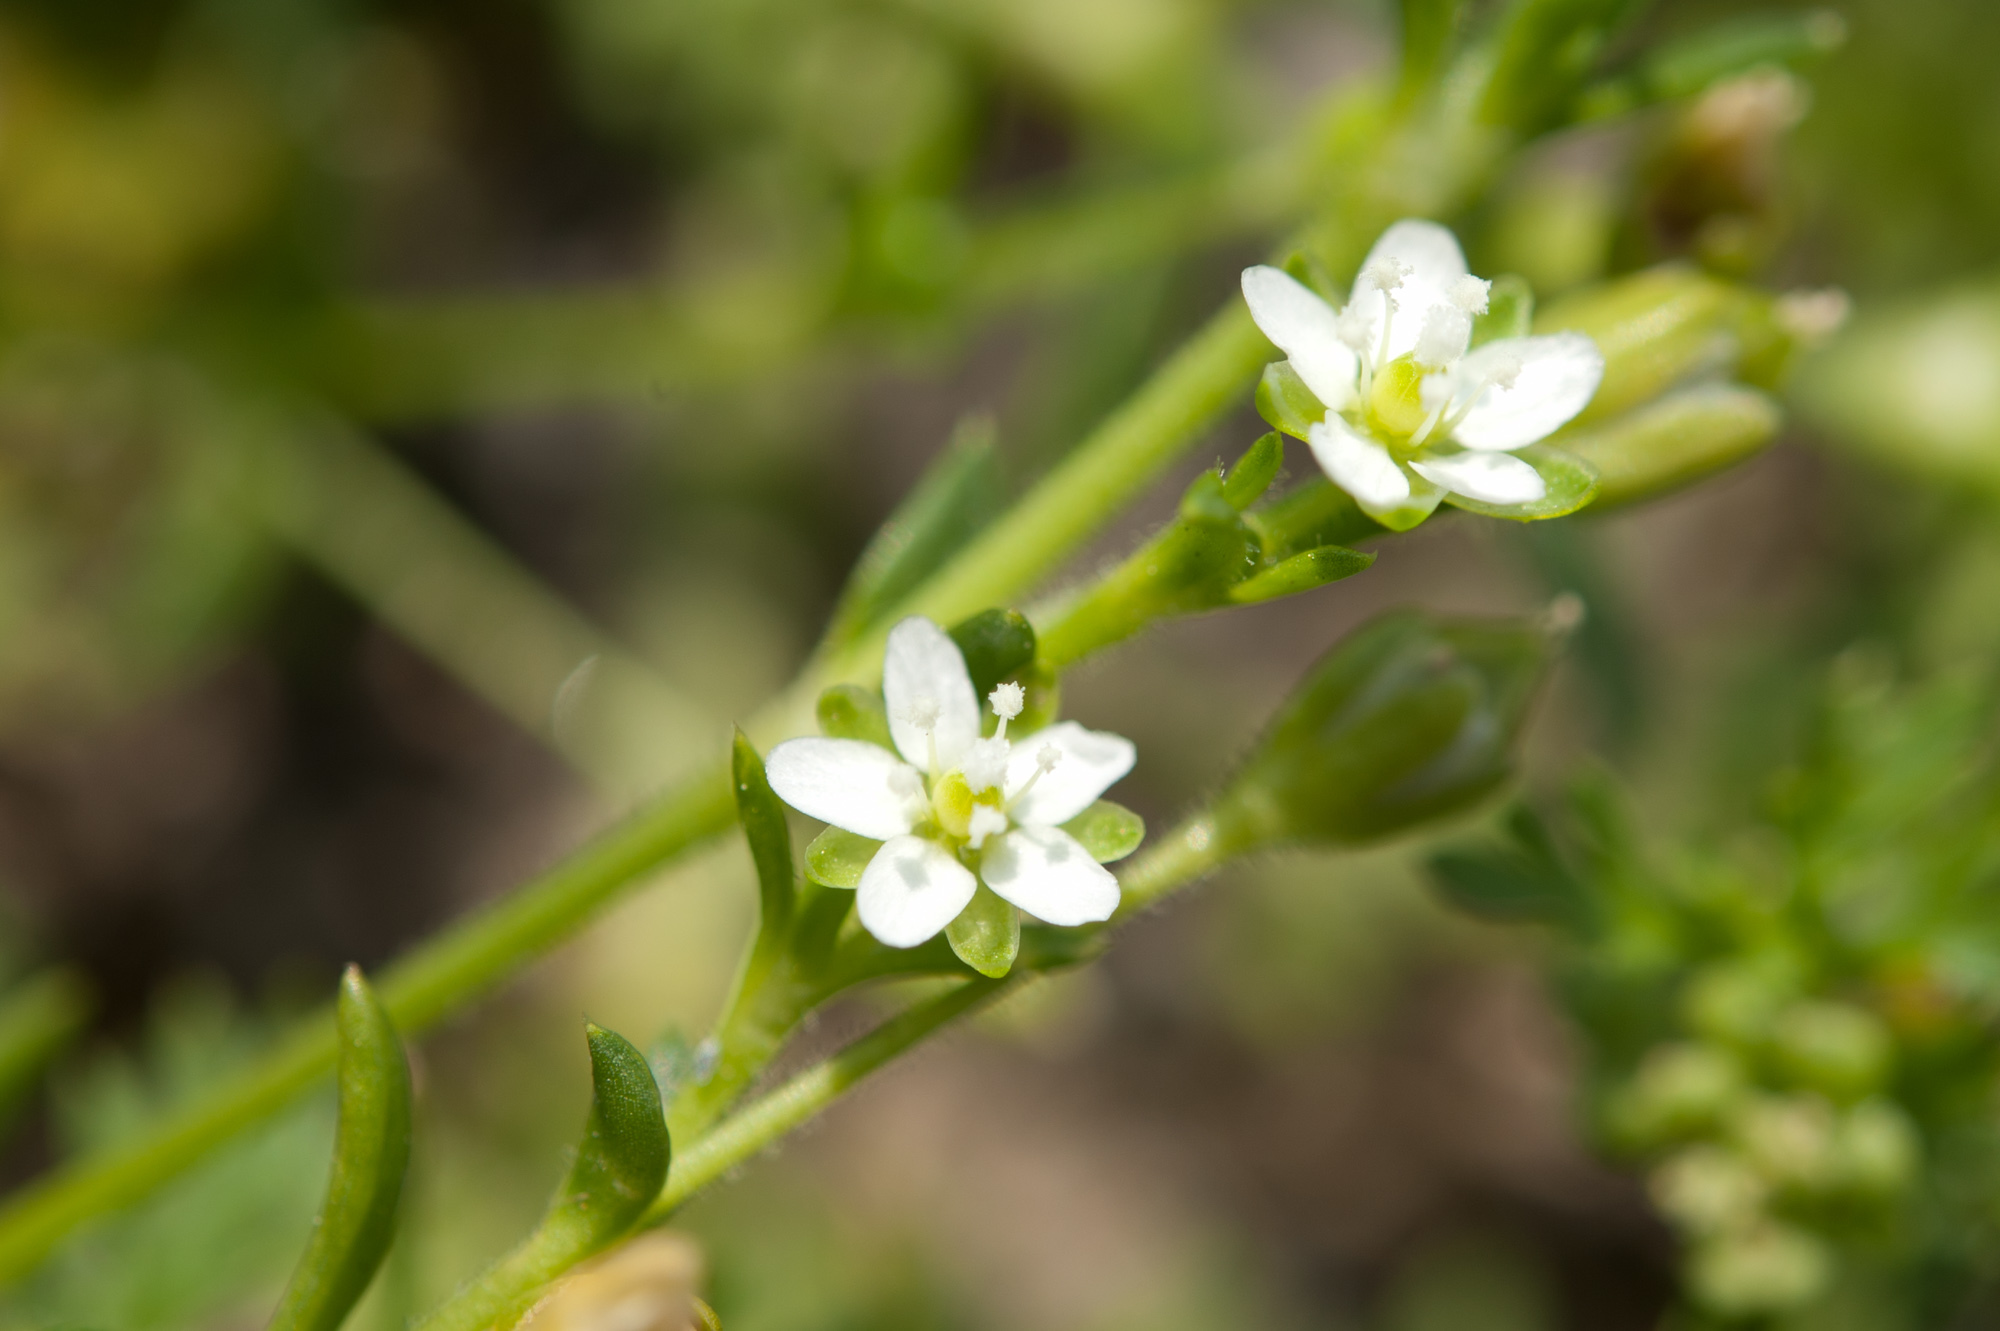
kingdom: Plantae
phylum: Tracheophyta
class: Magnoliopsida
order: Caryophyllales
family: Caryophyllaceae
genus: Sagina
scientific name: Sagina japonica
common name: Japanese pearlwort
